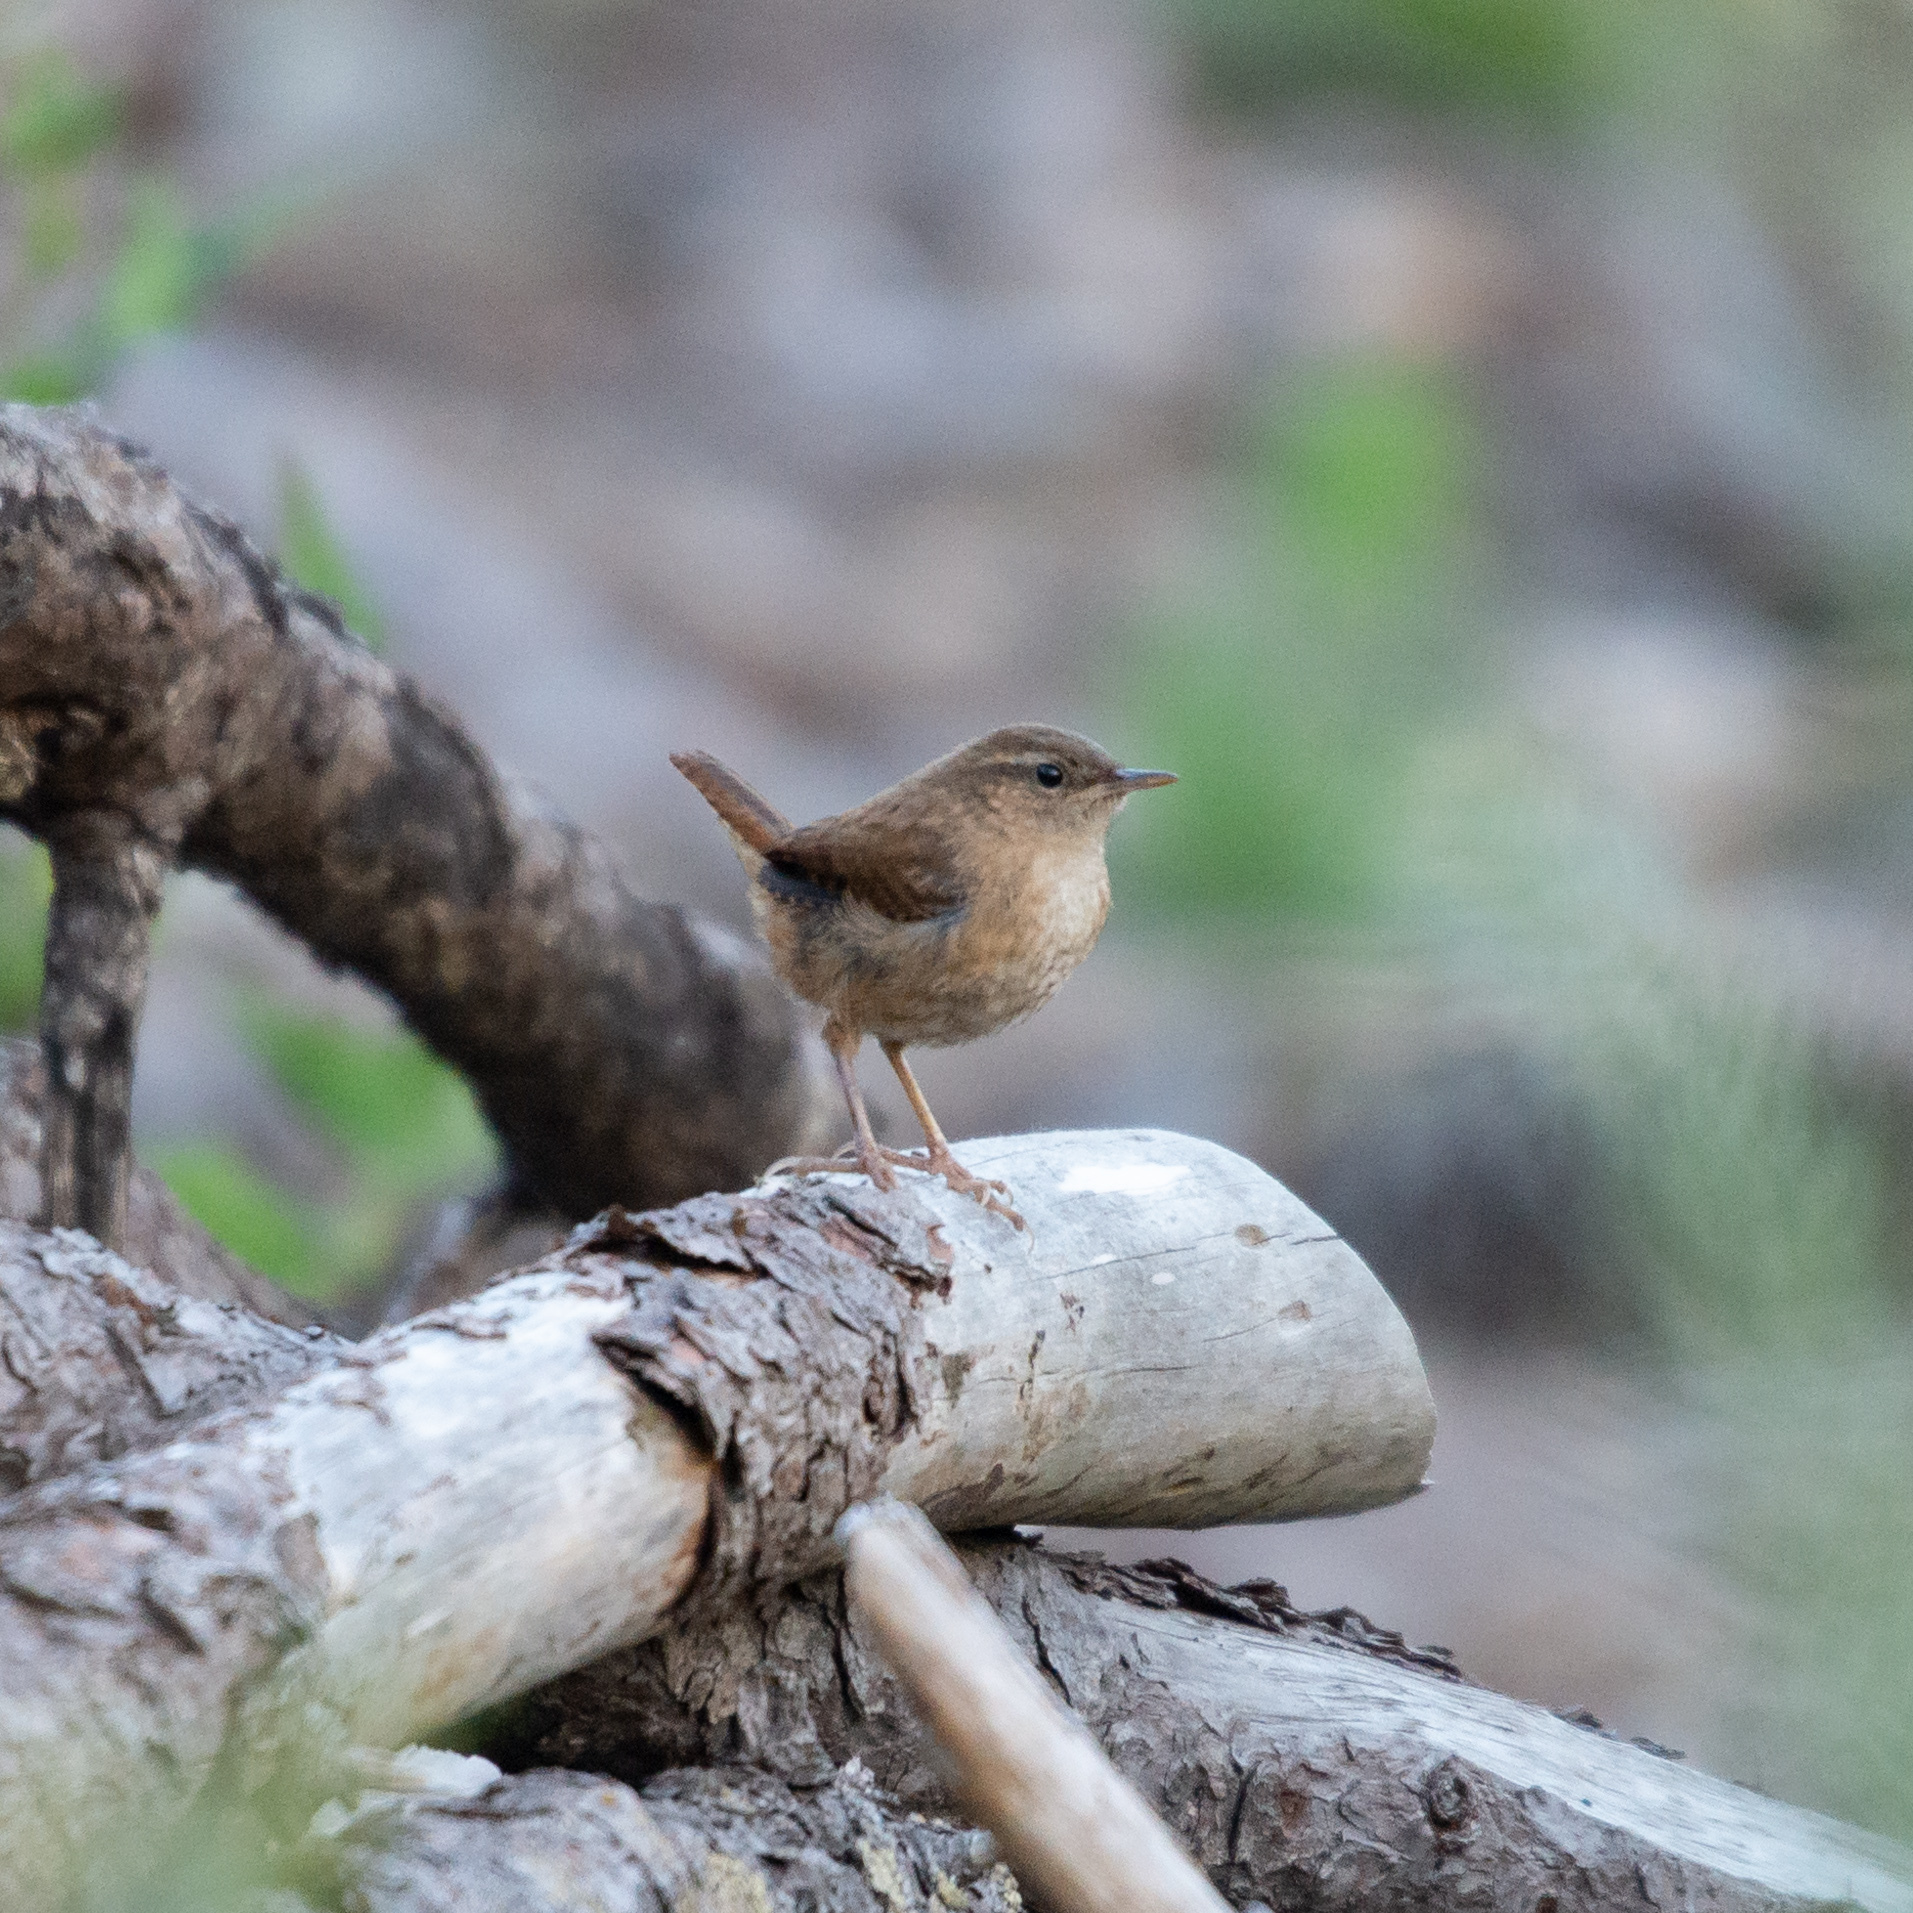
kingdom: Animalia
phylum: Chordata
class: Aves
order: Passeriformes
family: Troglodytidae
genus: Troglodytes
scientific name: Troglodytes troglodytes
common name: Eurasian wren
